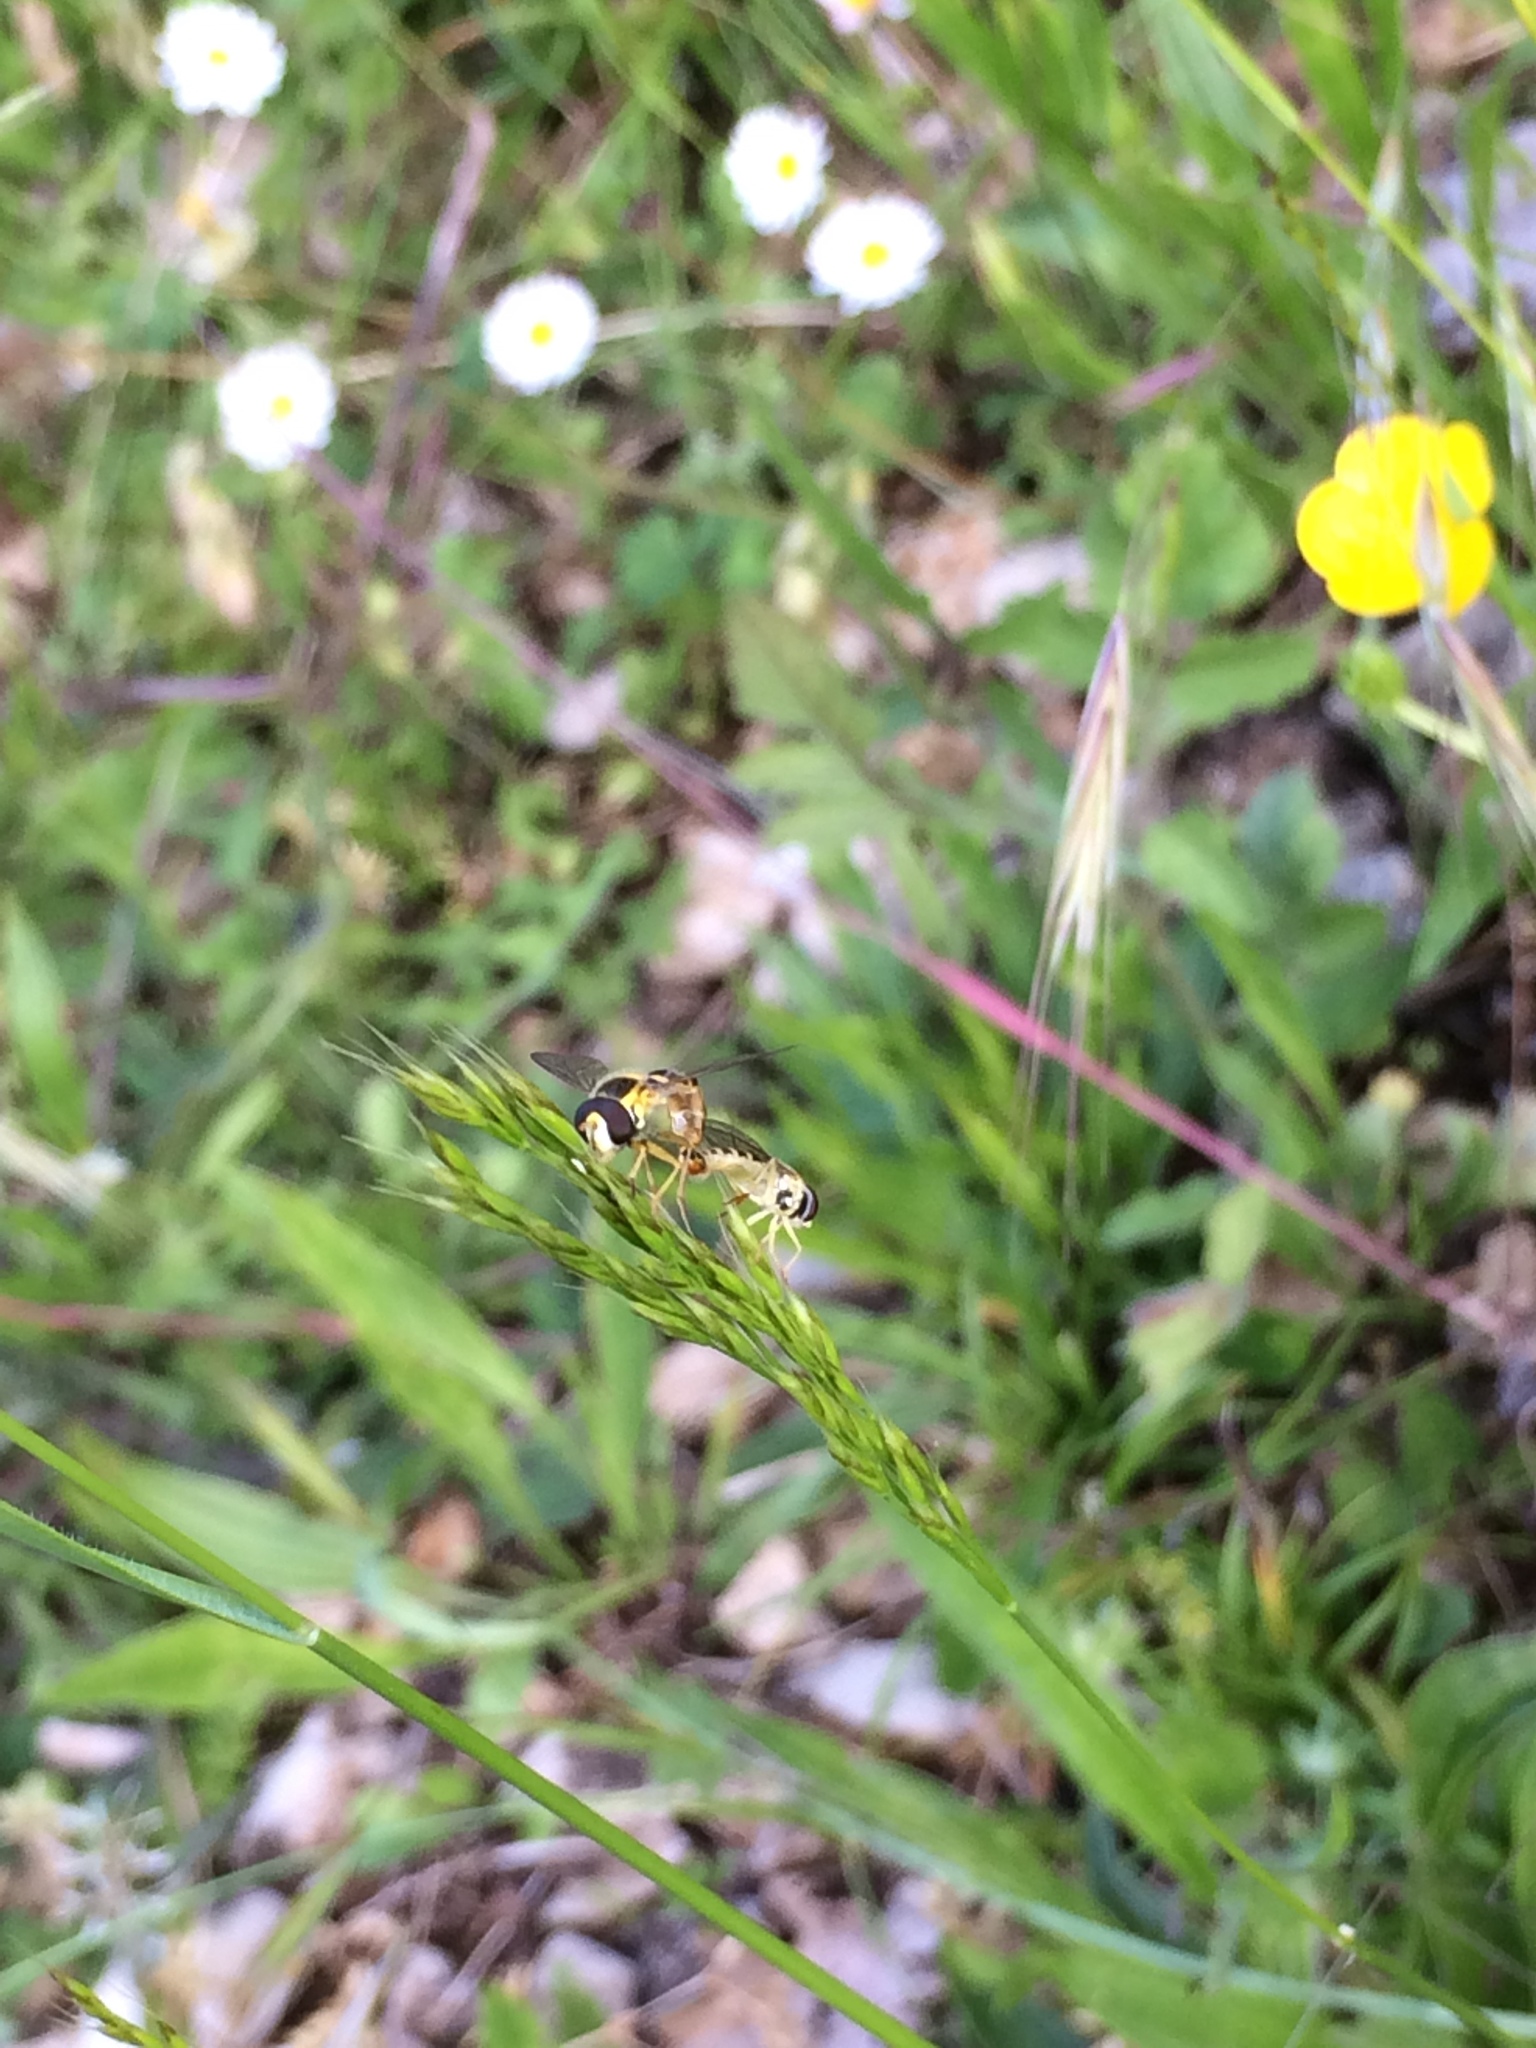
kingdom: Animalia
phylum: Arthropoda
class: Insecta
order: Diptera
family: Syrphidae
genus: Sphaerophoria
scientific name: Sphaerophoria
